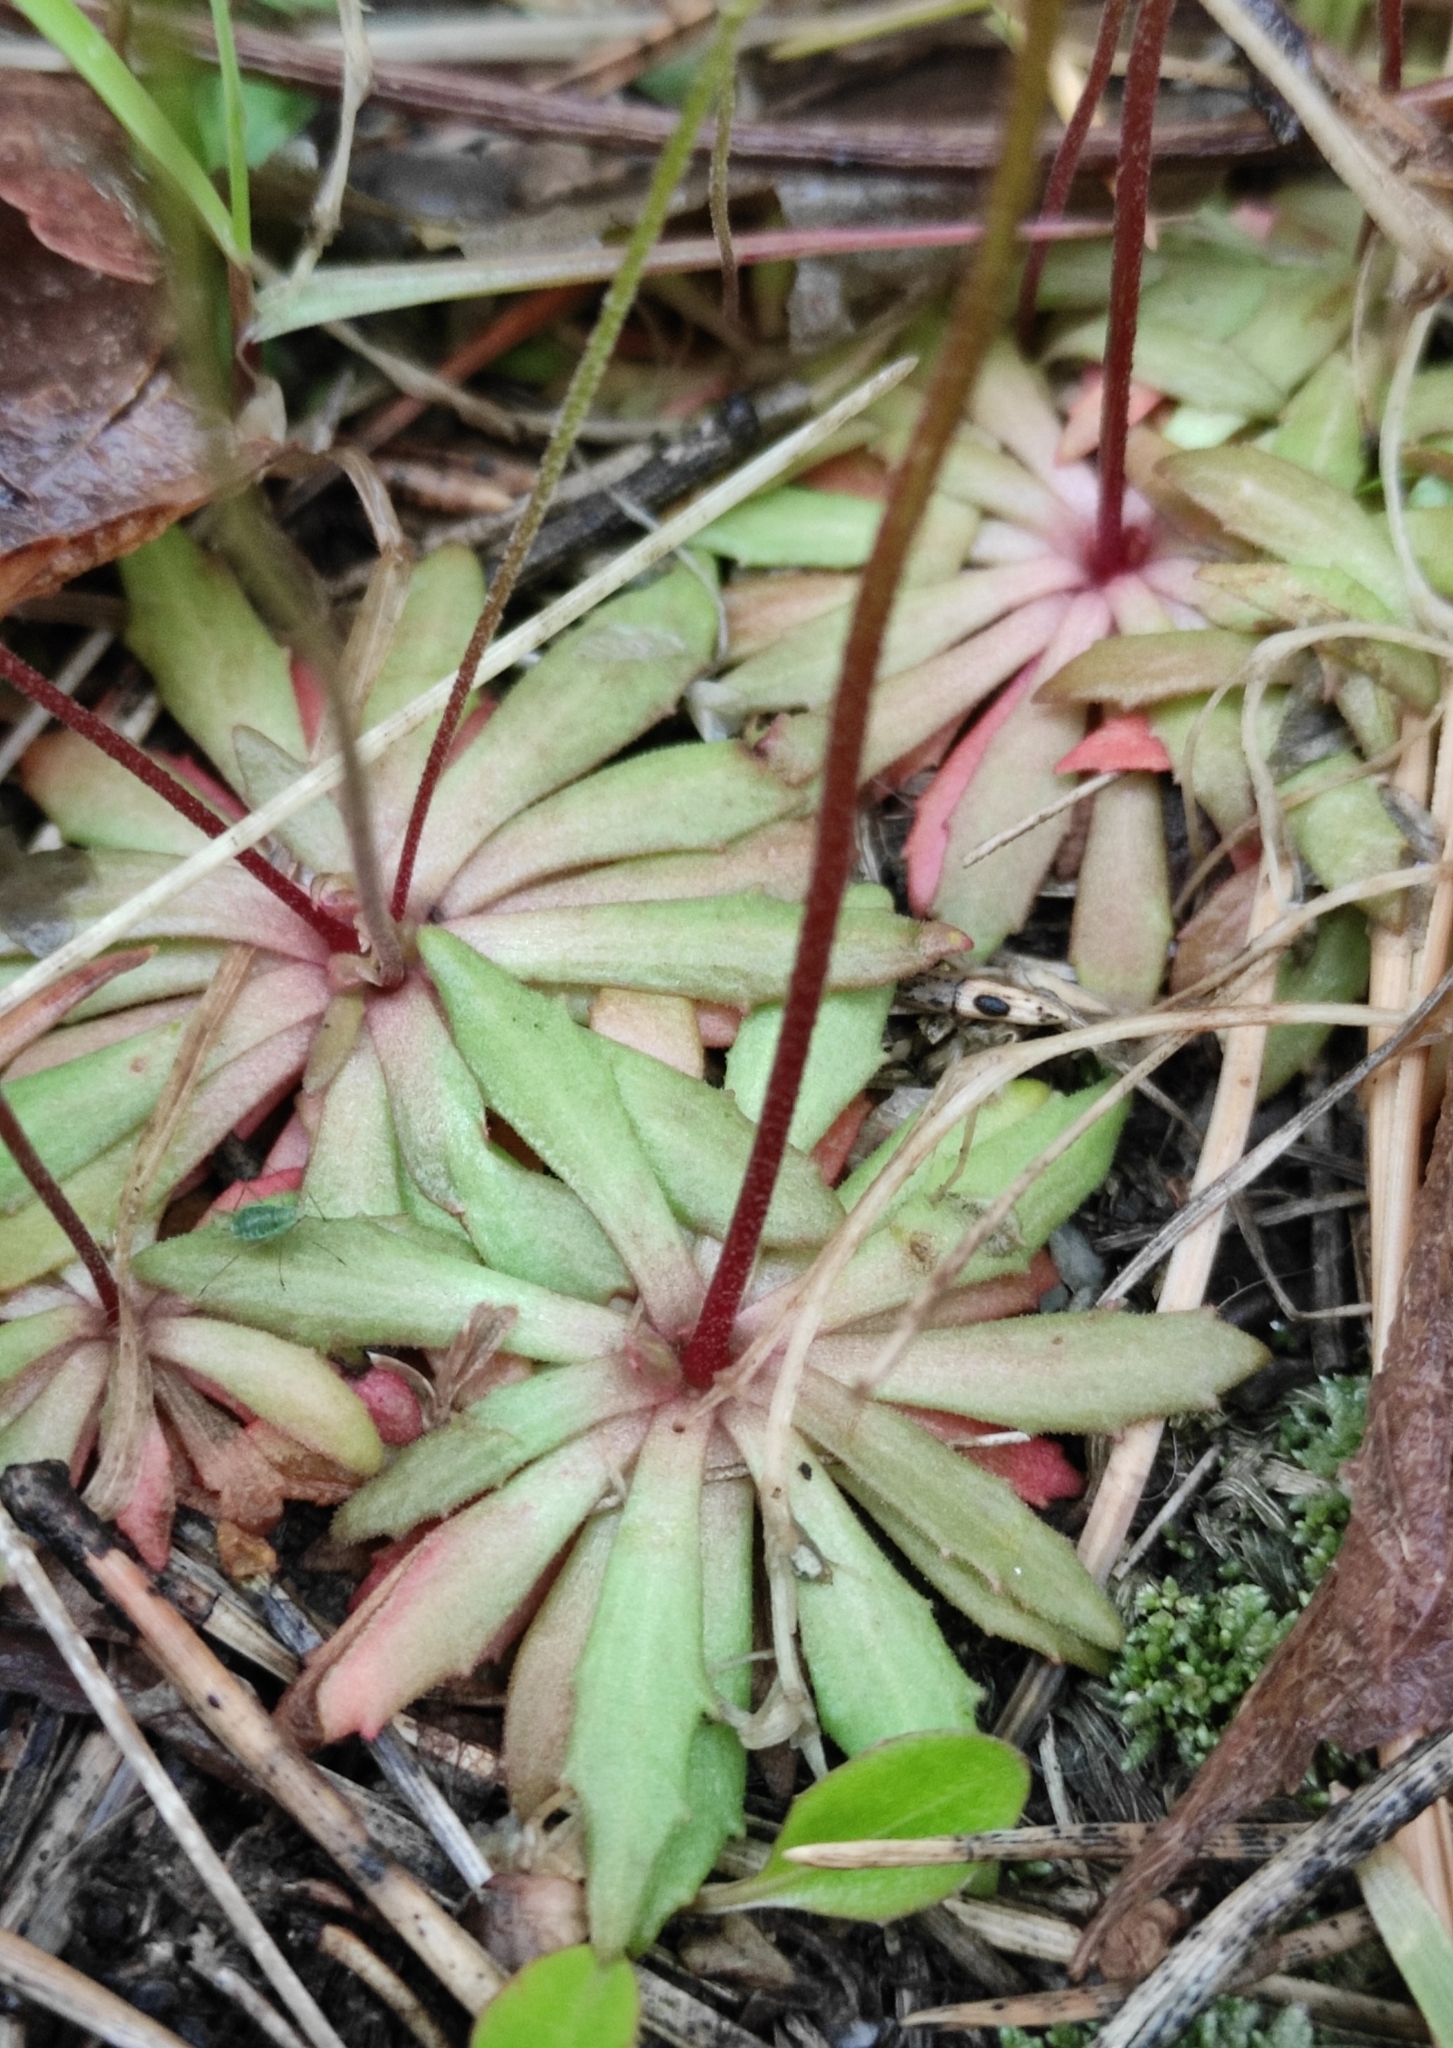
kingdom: Plantae
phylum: Tracheophyta
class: Magnoliopsida
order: Ericales
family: Primulaceae
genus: Androsace
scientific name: Androsace septentrionalis
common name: Hairy northern fairy-candelabra
